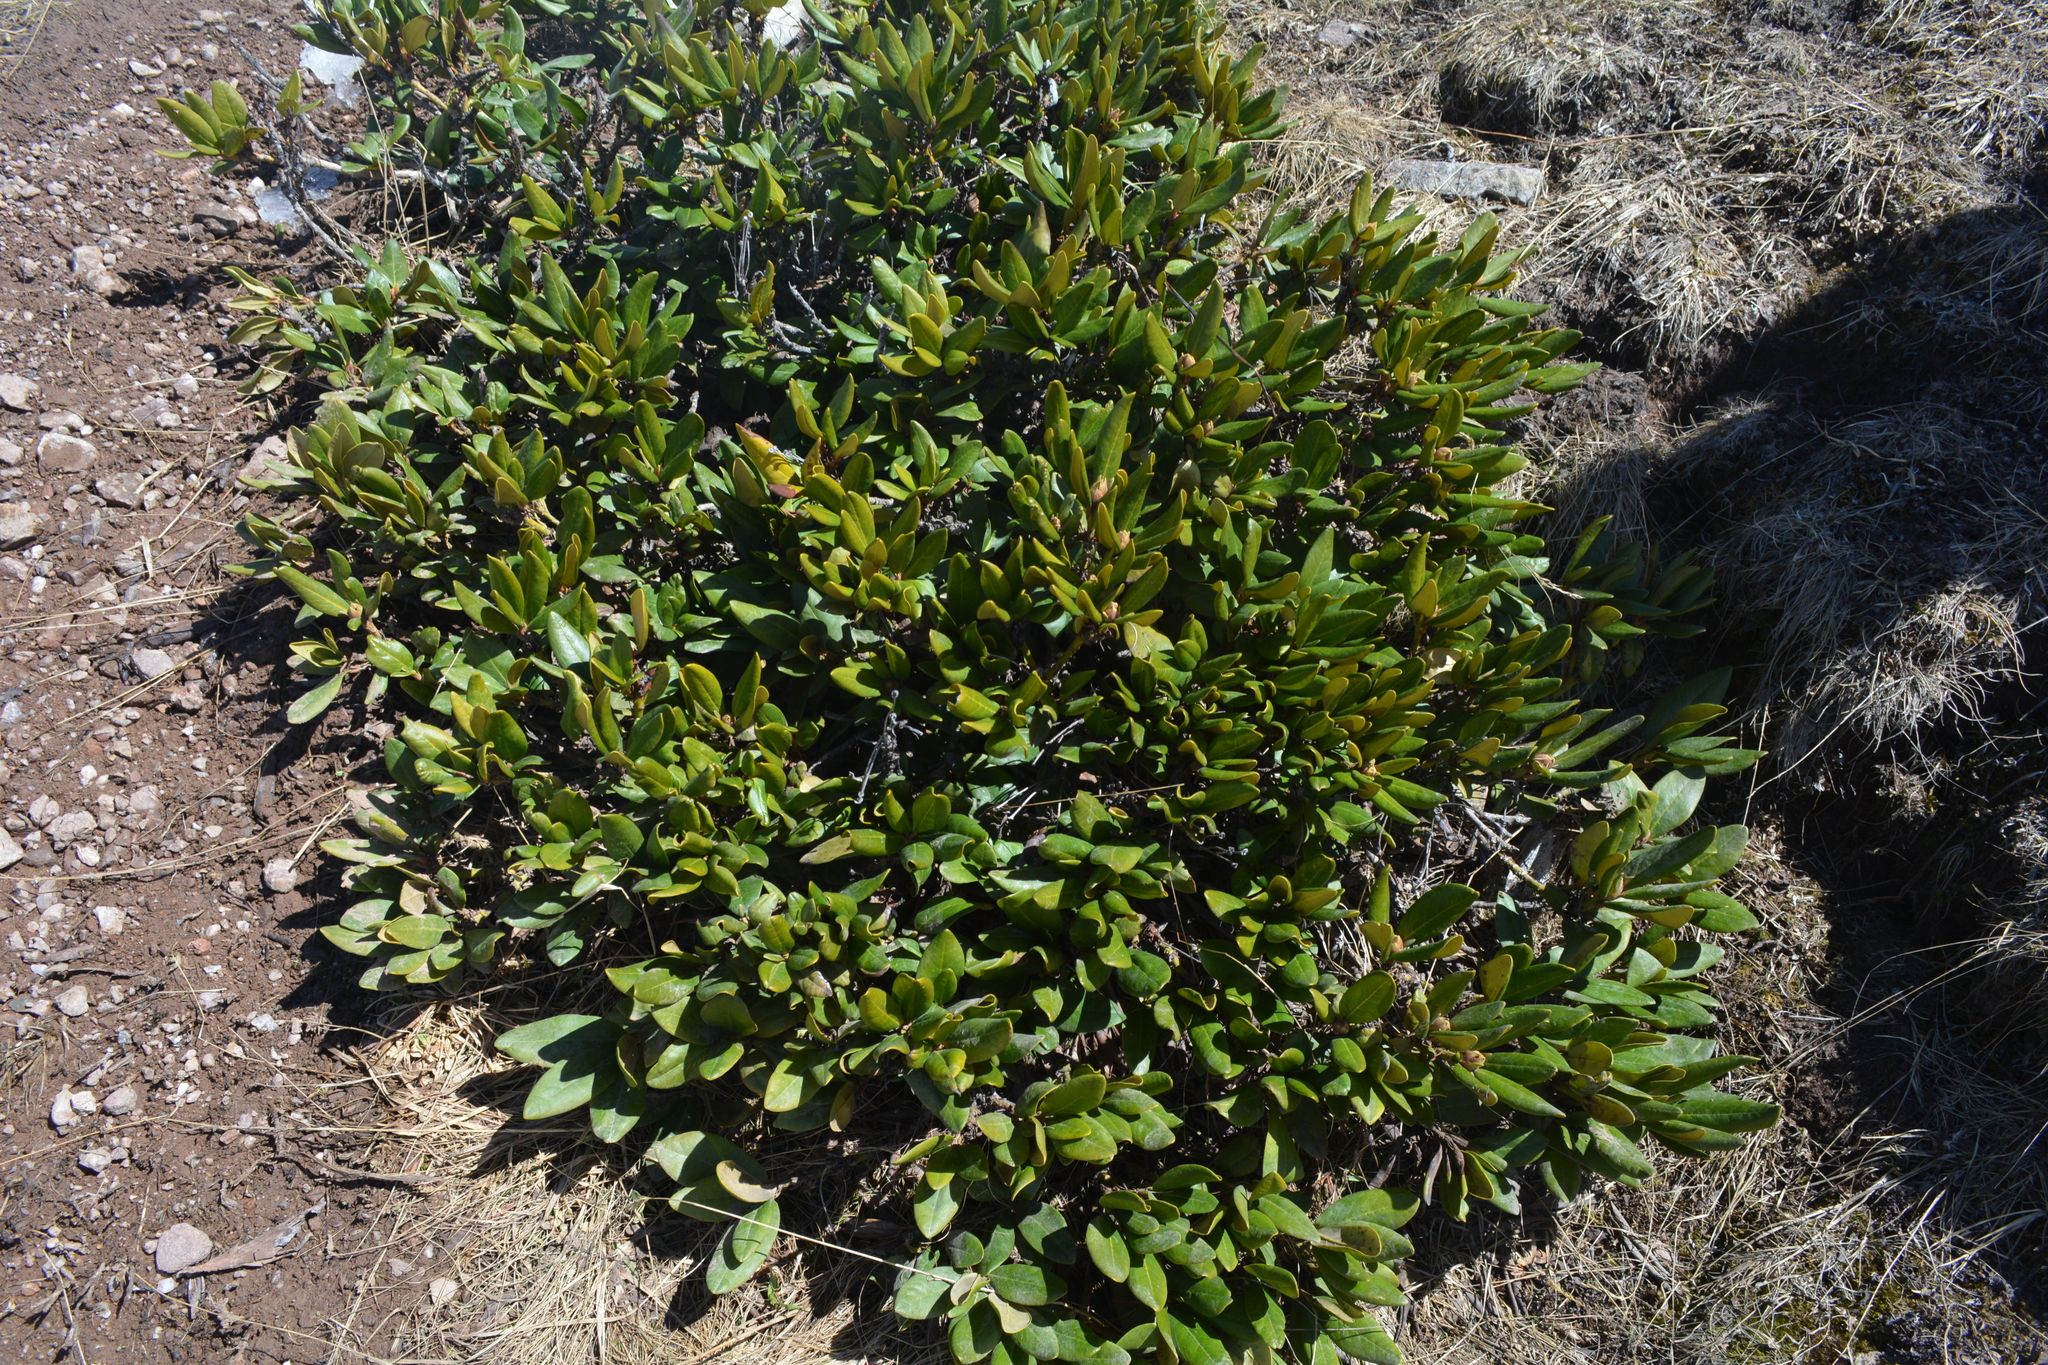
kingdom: Plantae
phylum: Tracheophyta
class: Magnoliopsida
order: Ericales
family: Ericaceae
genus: Rhododendron
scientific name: Rhododendron caucasicum
